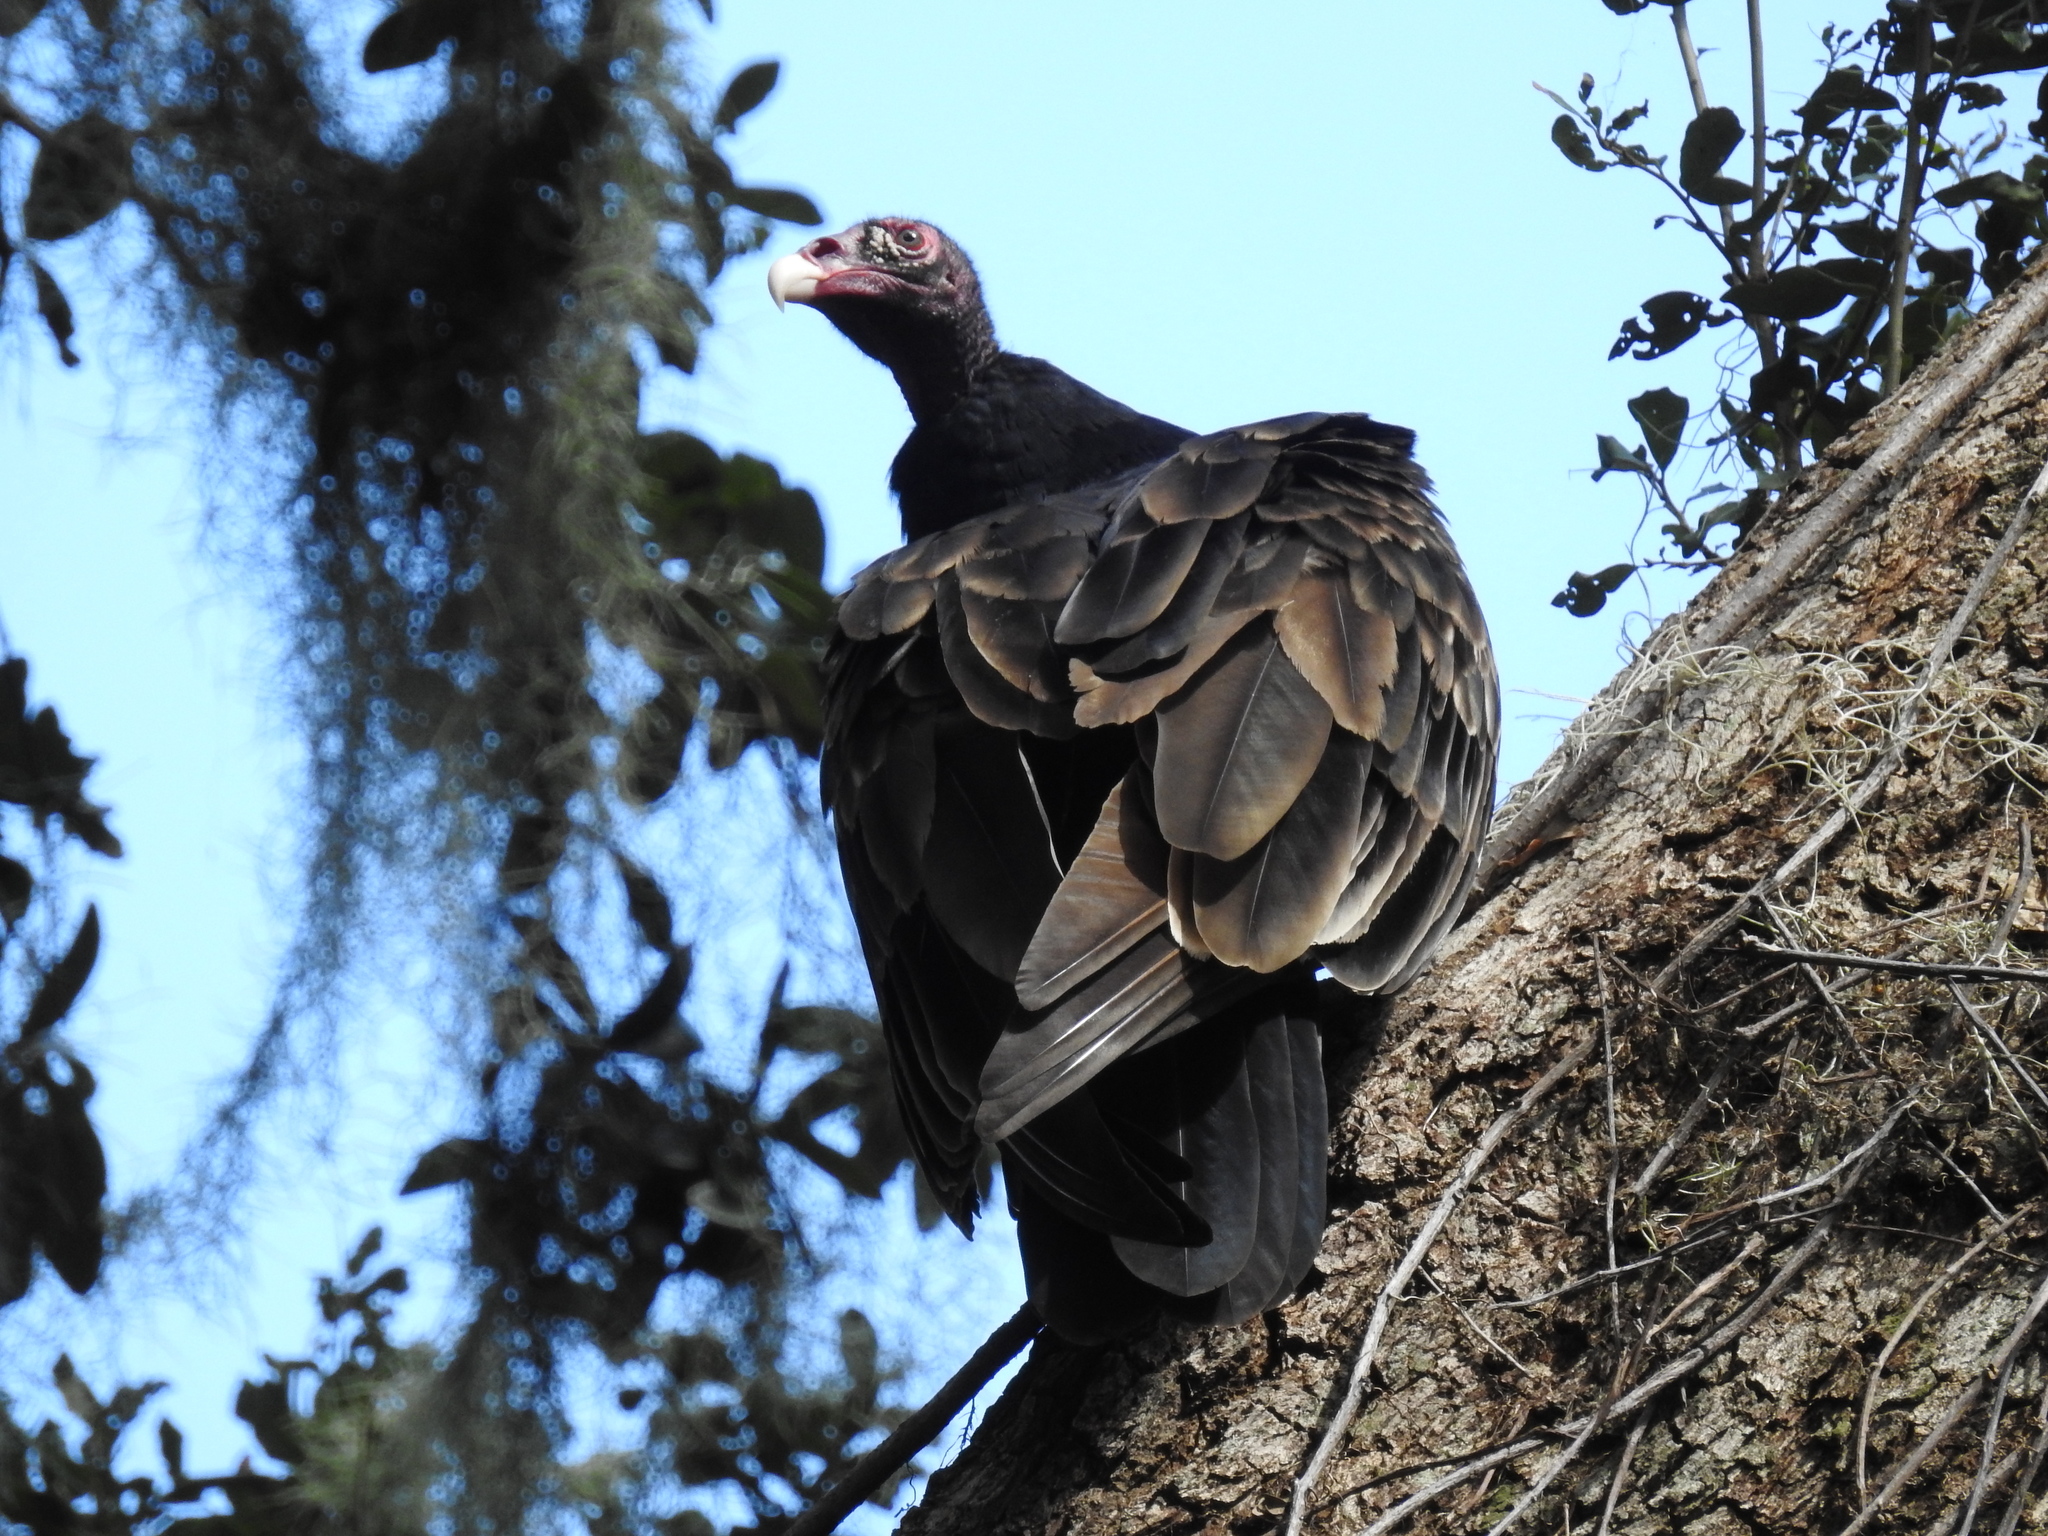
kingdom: Animalia
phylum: Chordata
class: Aves
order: Accipitriformes
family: Cathartidae
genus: Cathartes
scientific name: Cathartes aura
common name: Turkey vulture
